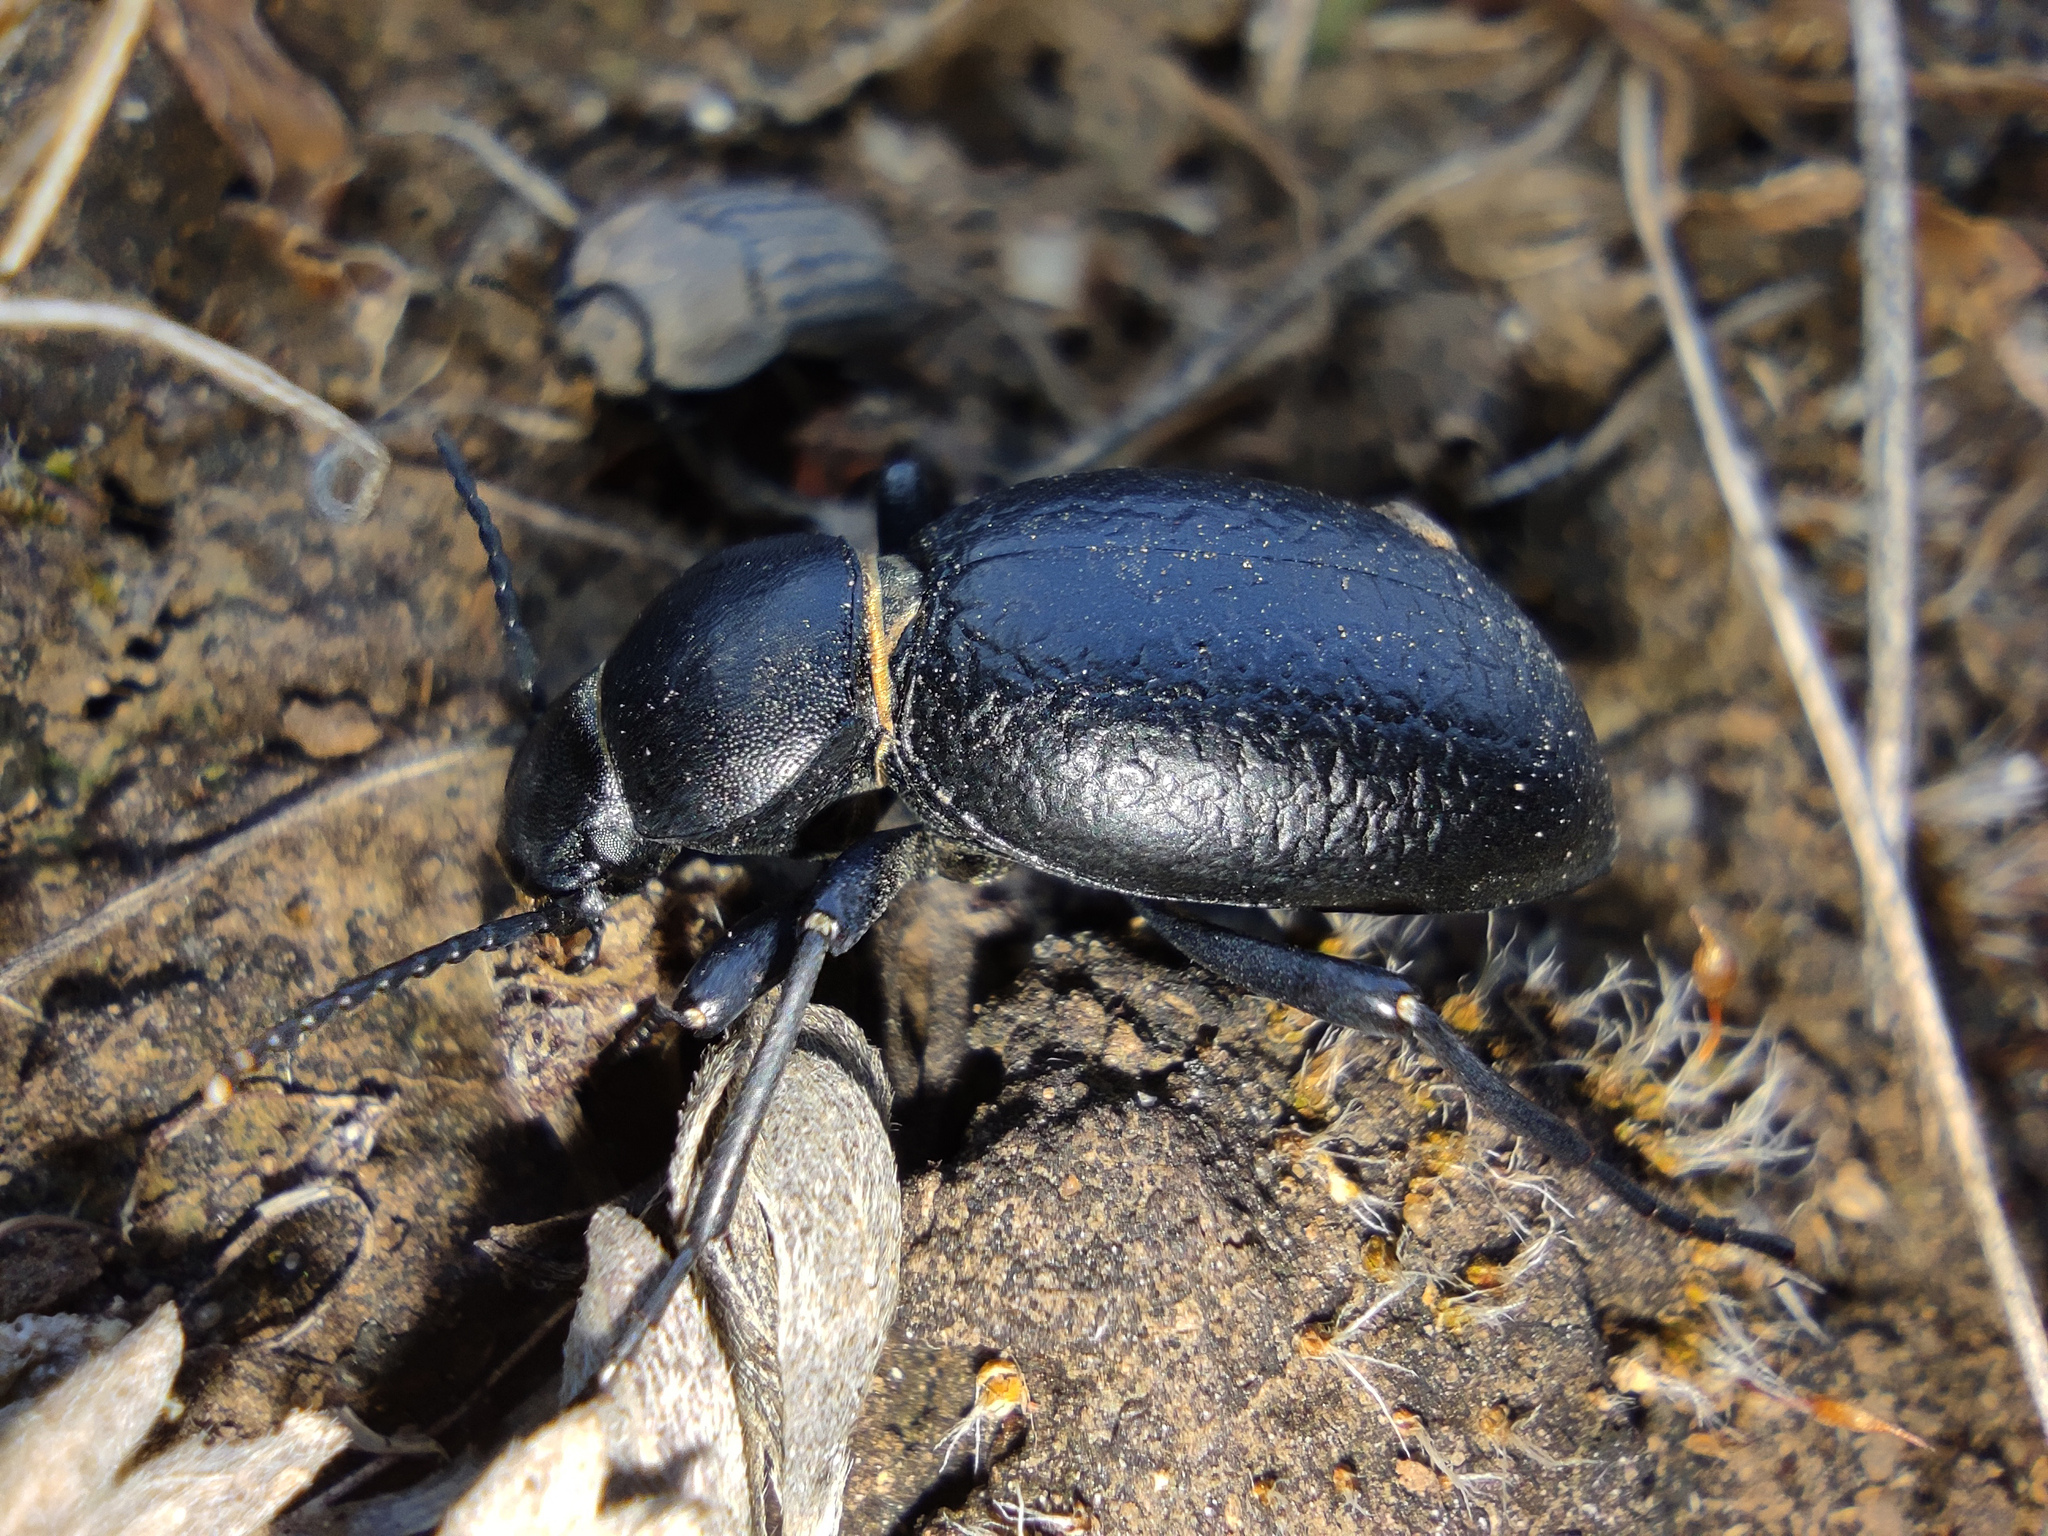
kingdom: Animalia
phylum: Arthropoda
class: Insecta
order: Coleoptera
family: Tenebrionidae
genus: Tentyria
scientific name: Tentyria nomas
